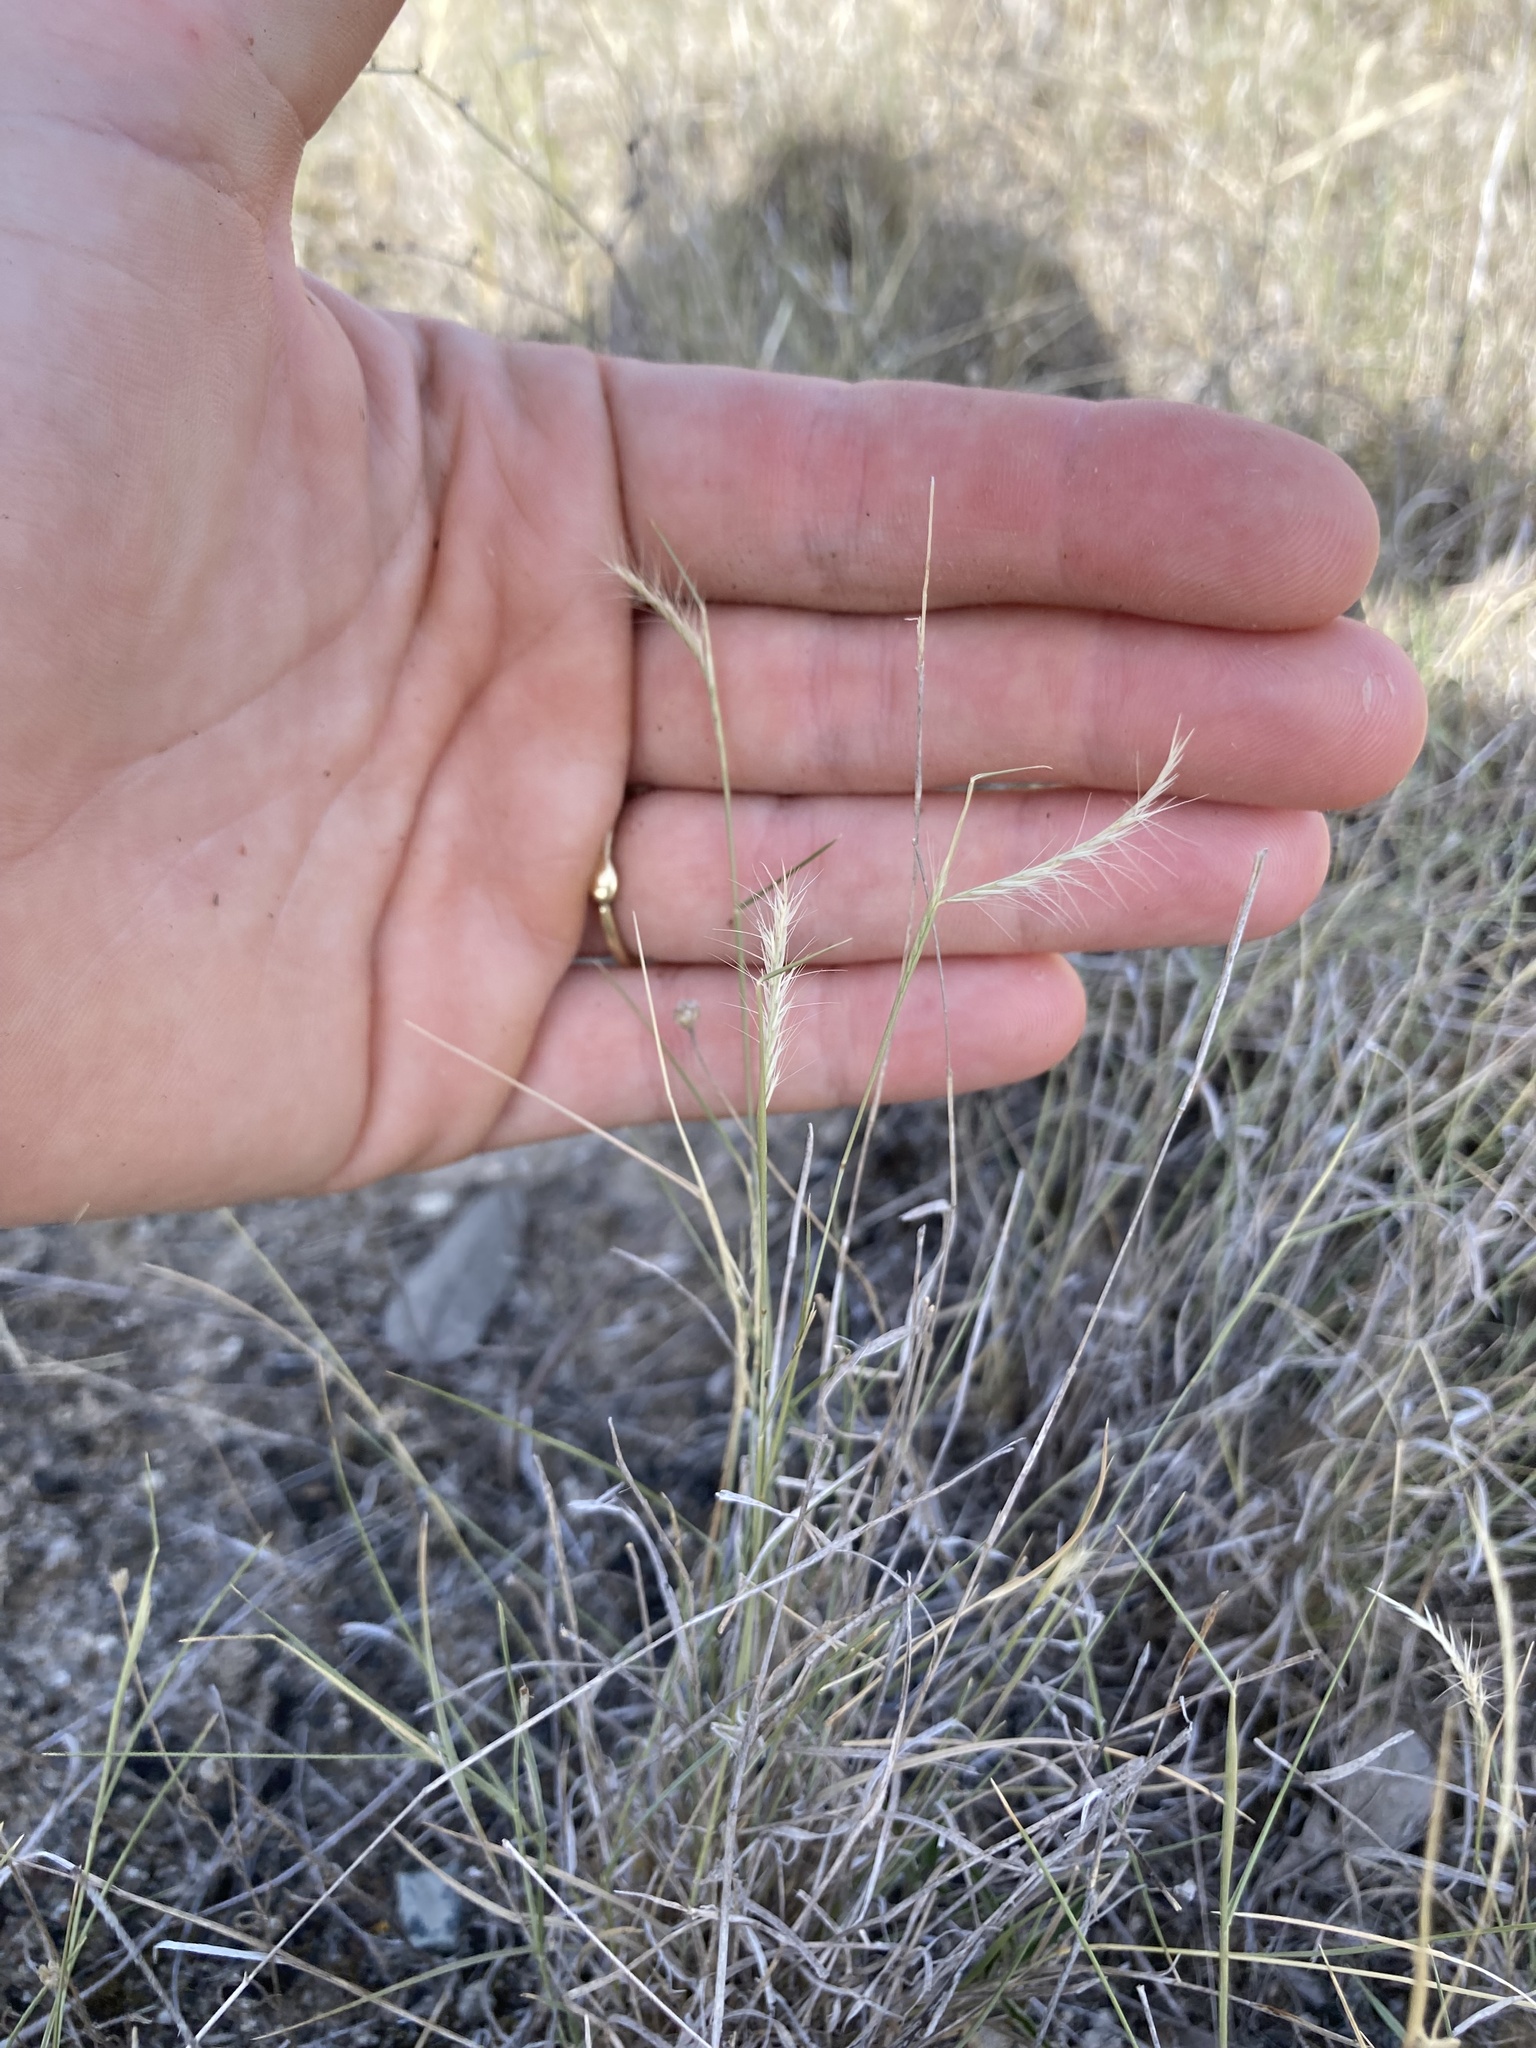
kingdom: Plantae
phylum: Tracheophyta
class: Liliopsida
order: Poales
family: Poaceae
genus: Bouteloua
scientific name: Bouteloua trifida
